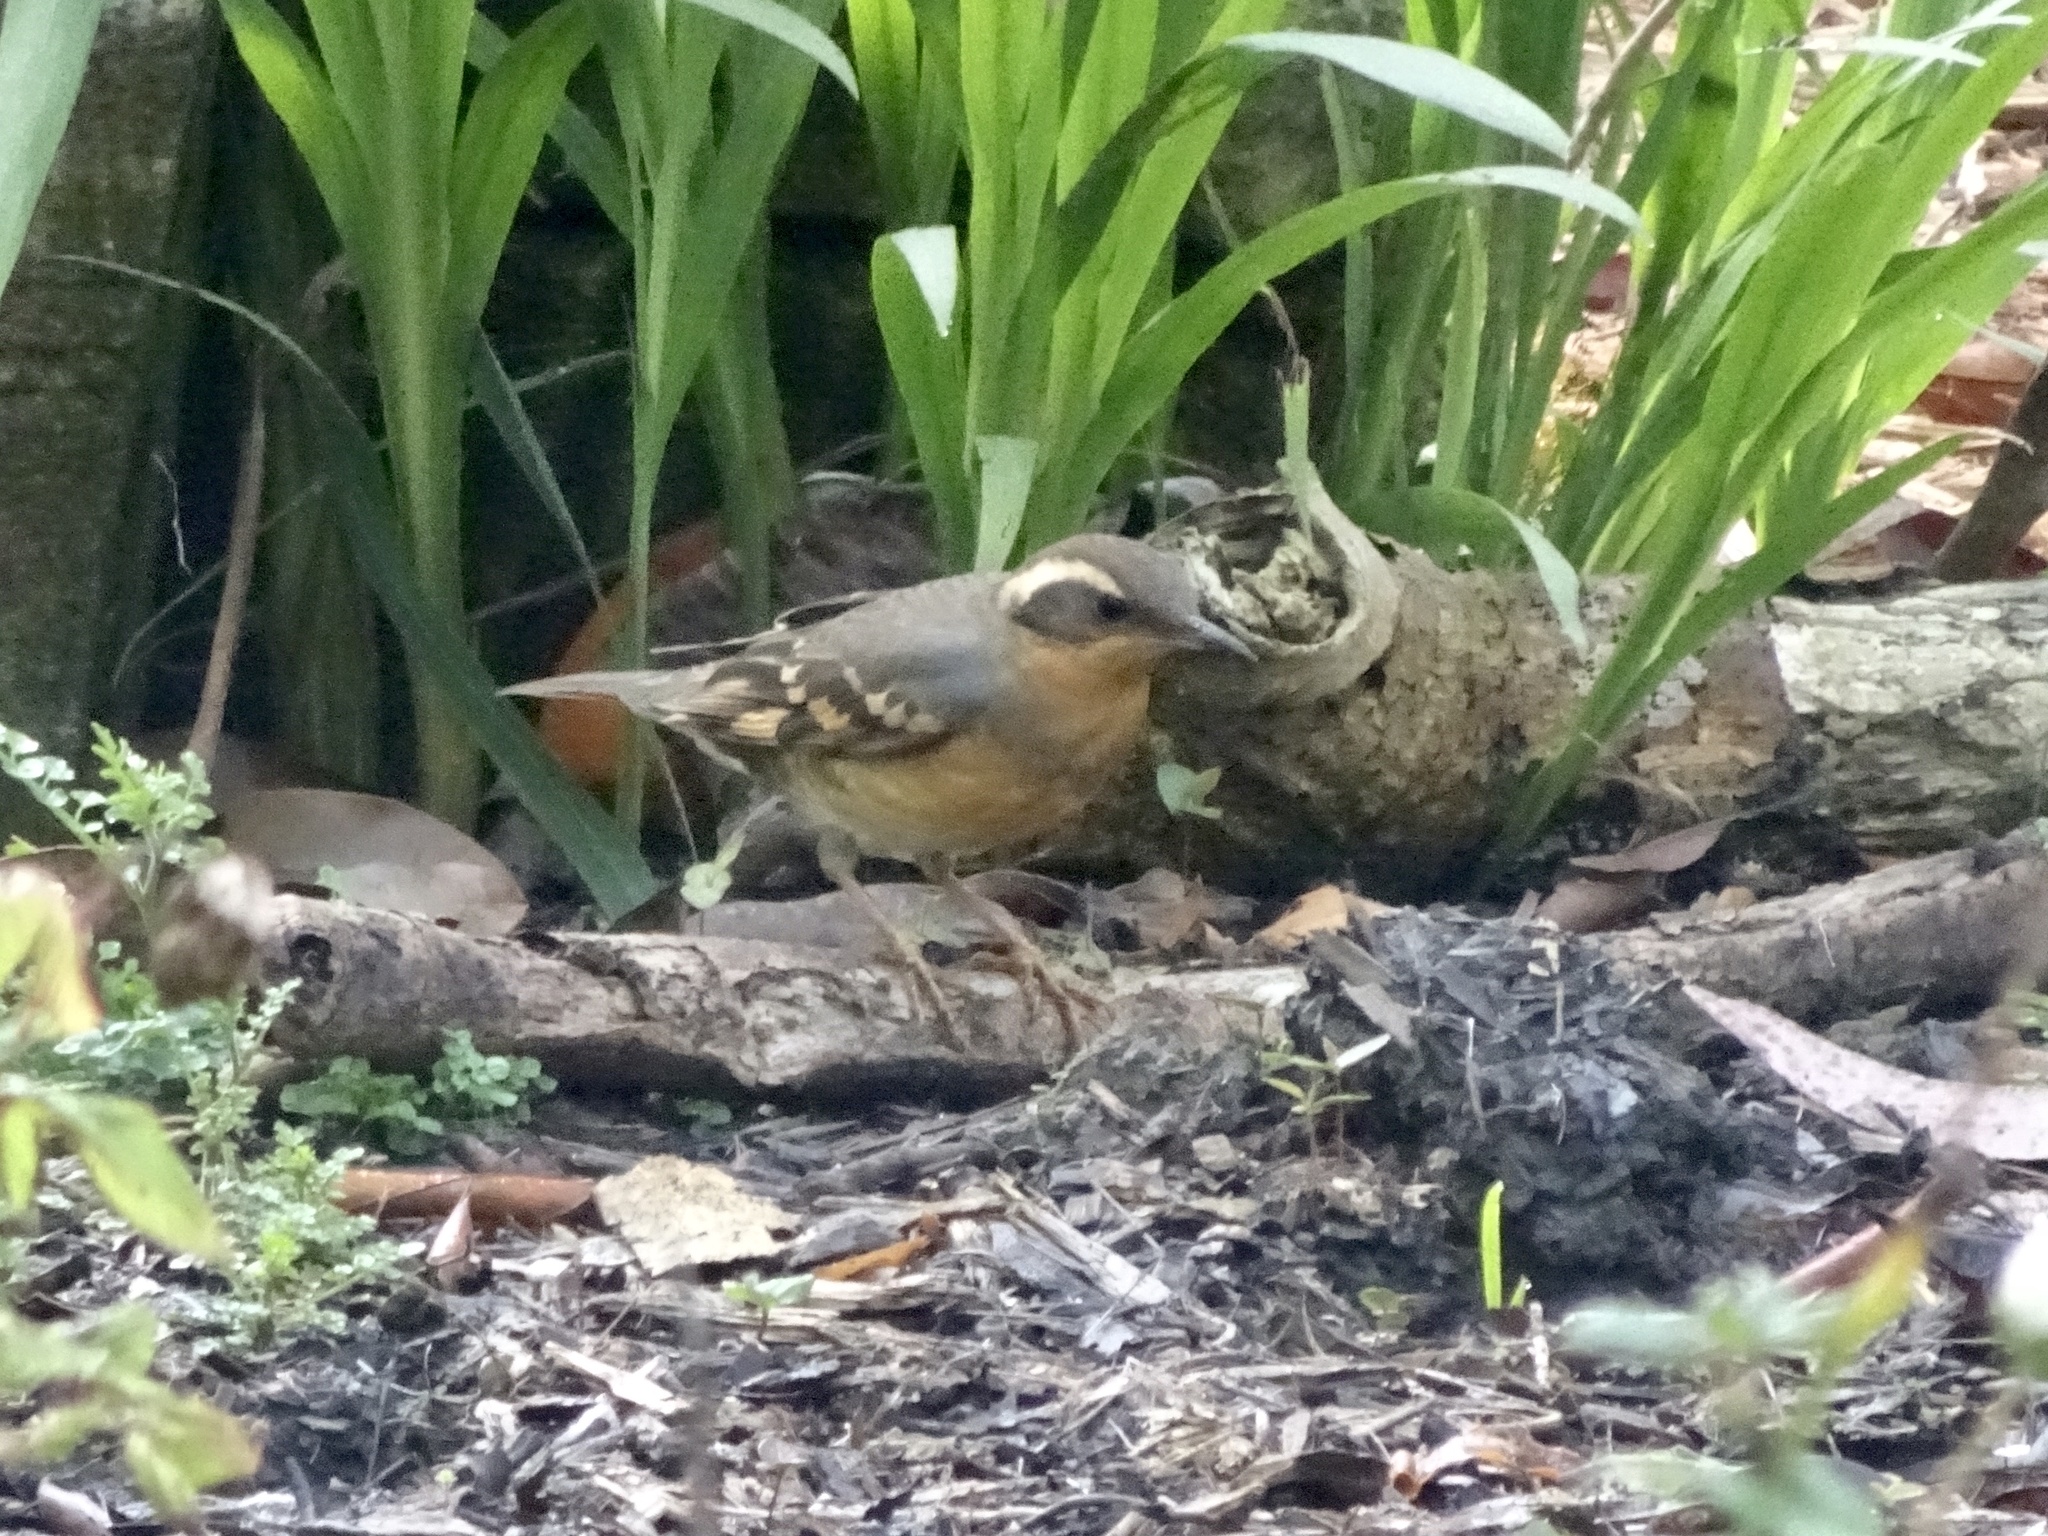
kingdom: Animalia
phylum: Chordata
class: Aves
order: Passeriformes
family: Turdidae
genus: Ixoreus
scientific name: Ixoreus naevius
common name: Varied thrush
